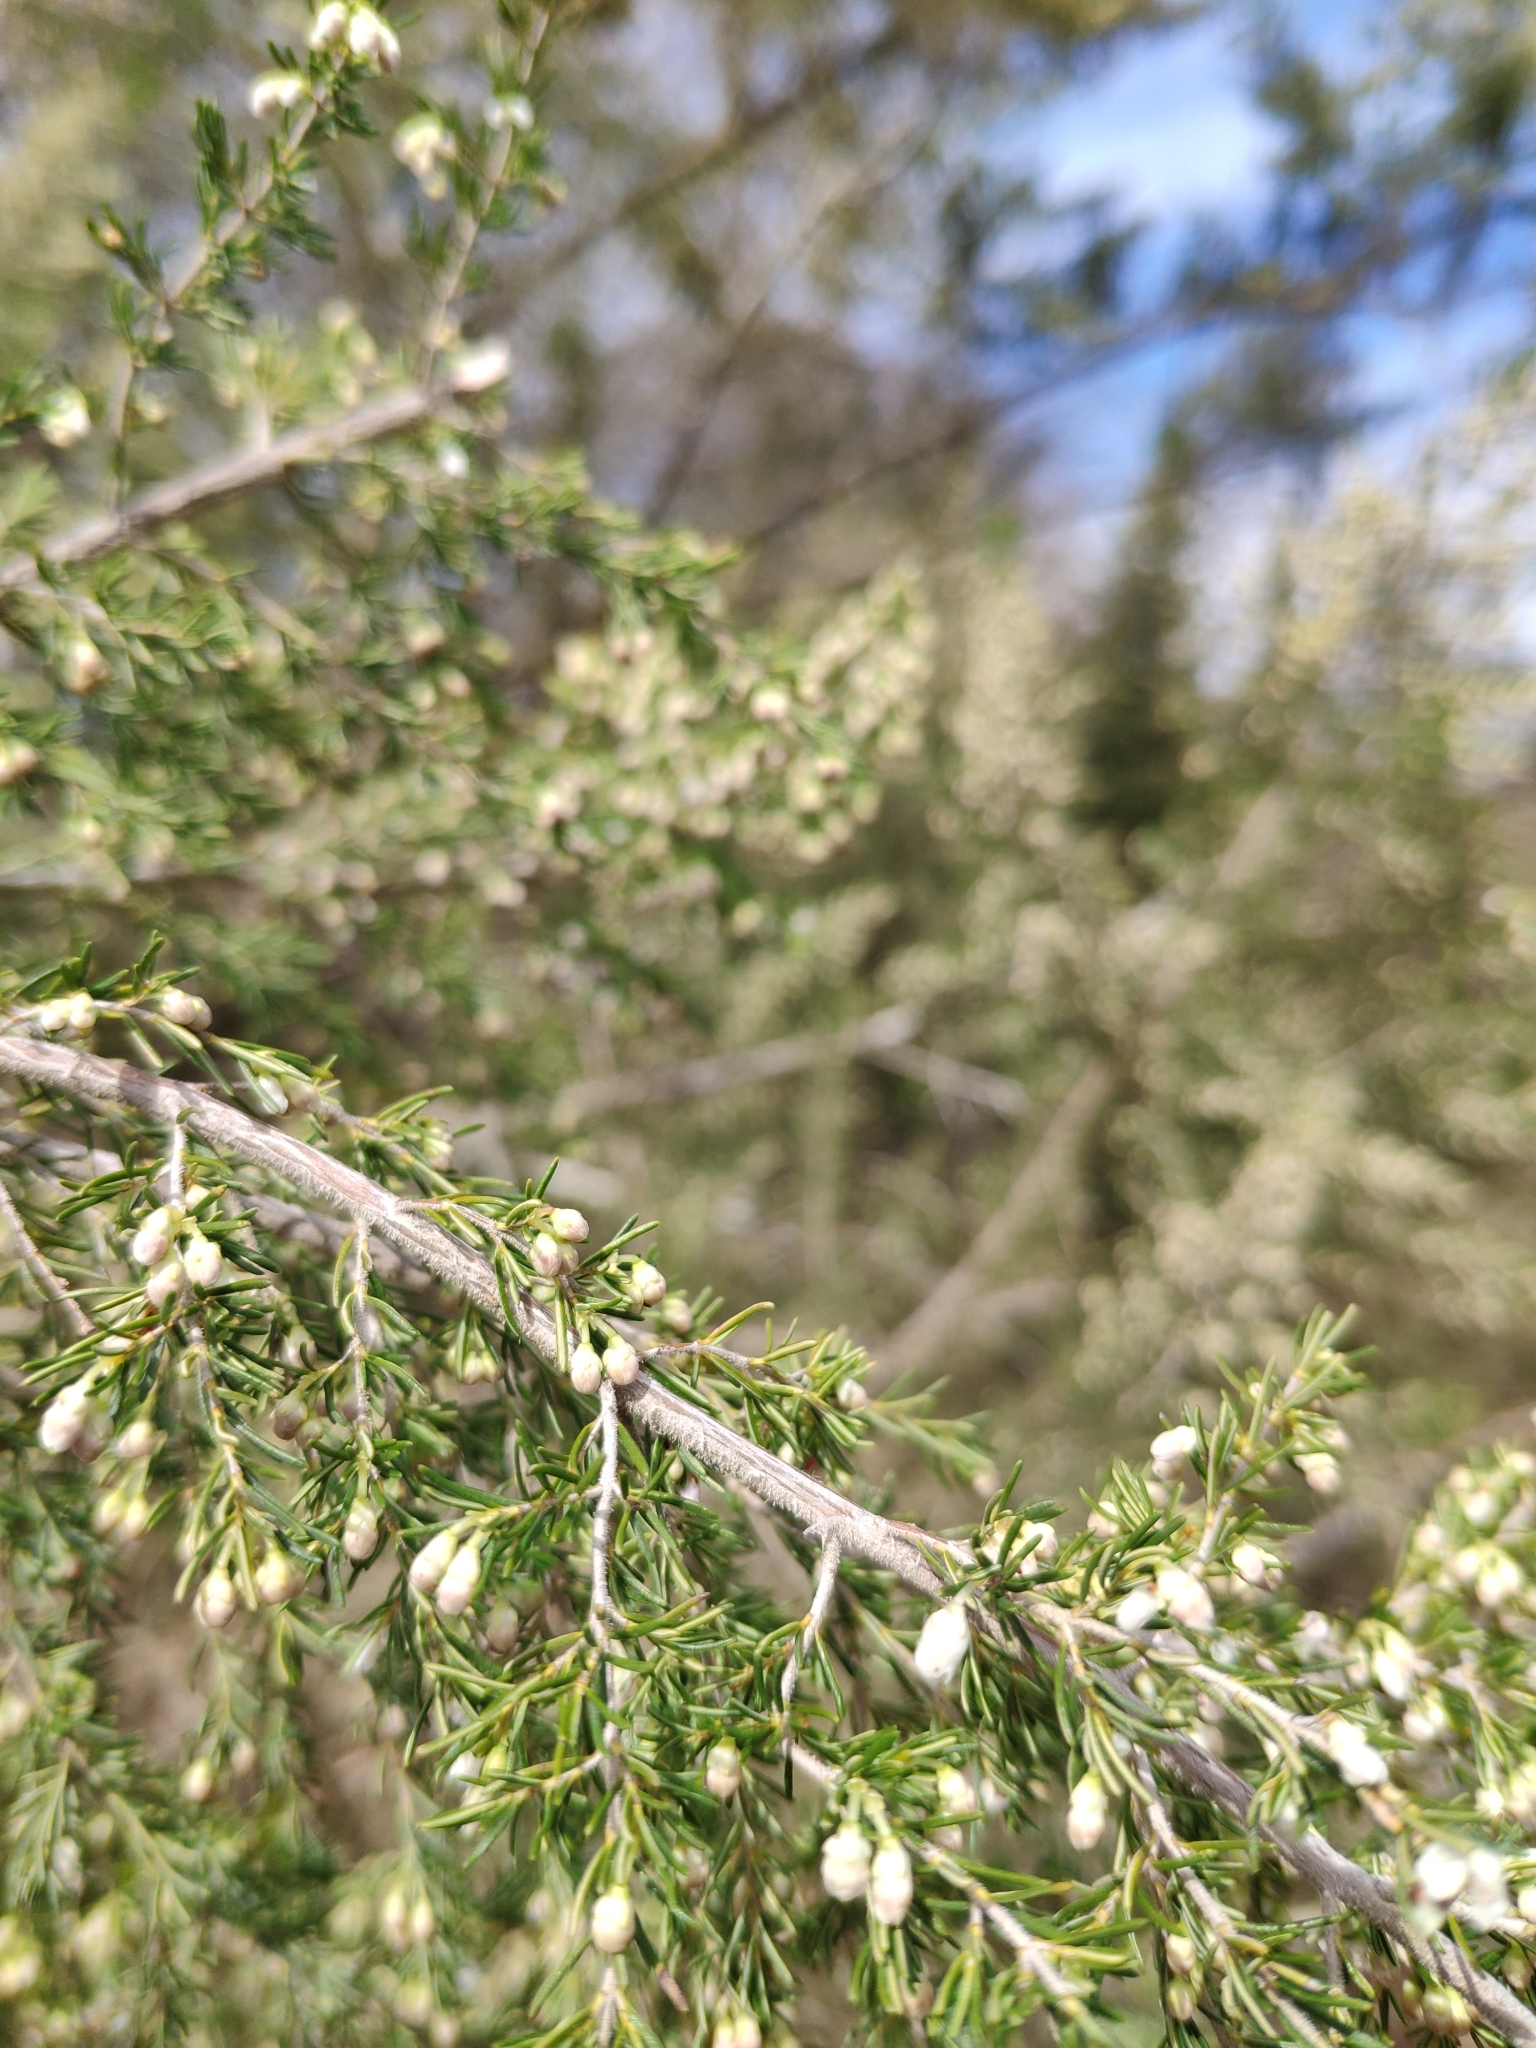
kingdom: Plantae
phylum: Tracheophyta
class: Magnoliopsida
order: Ericales
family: Ericaceae
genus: Erica
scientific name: Erica arborea
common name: Tree heath
